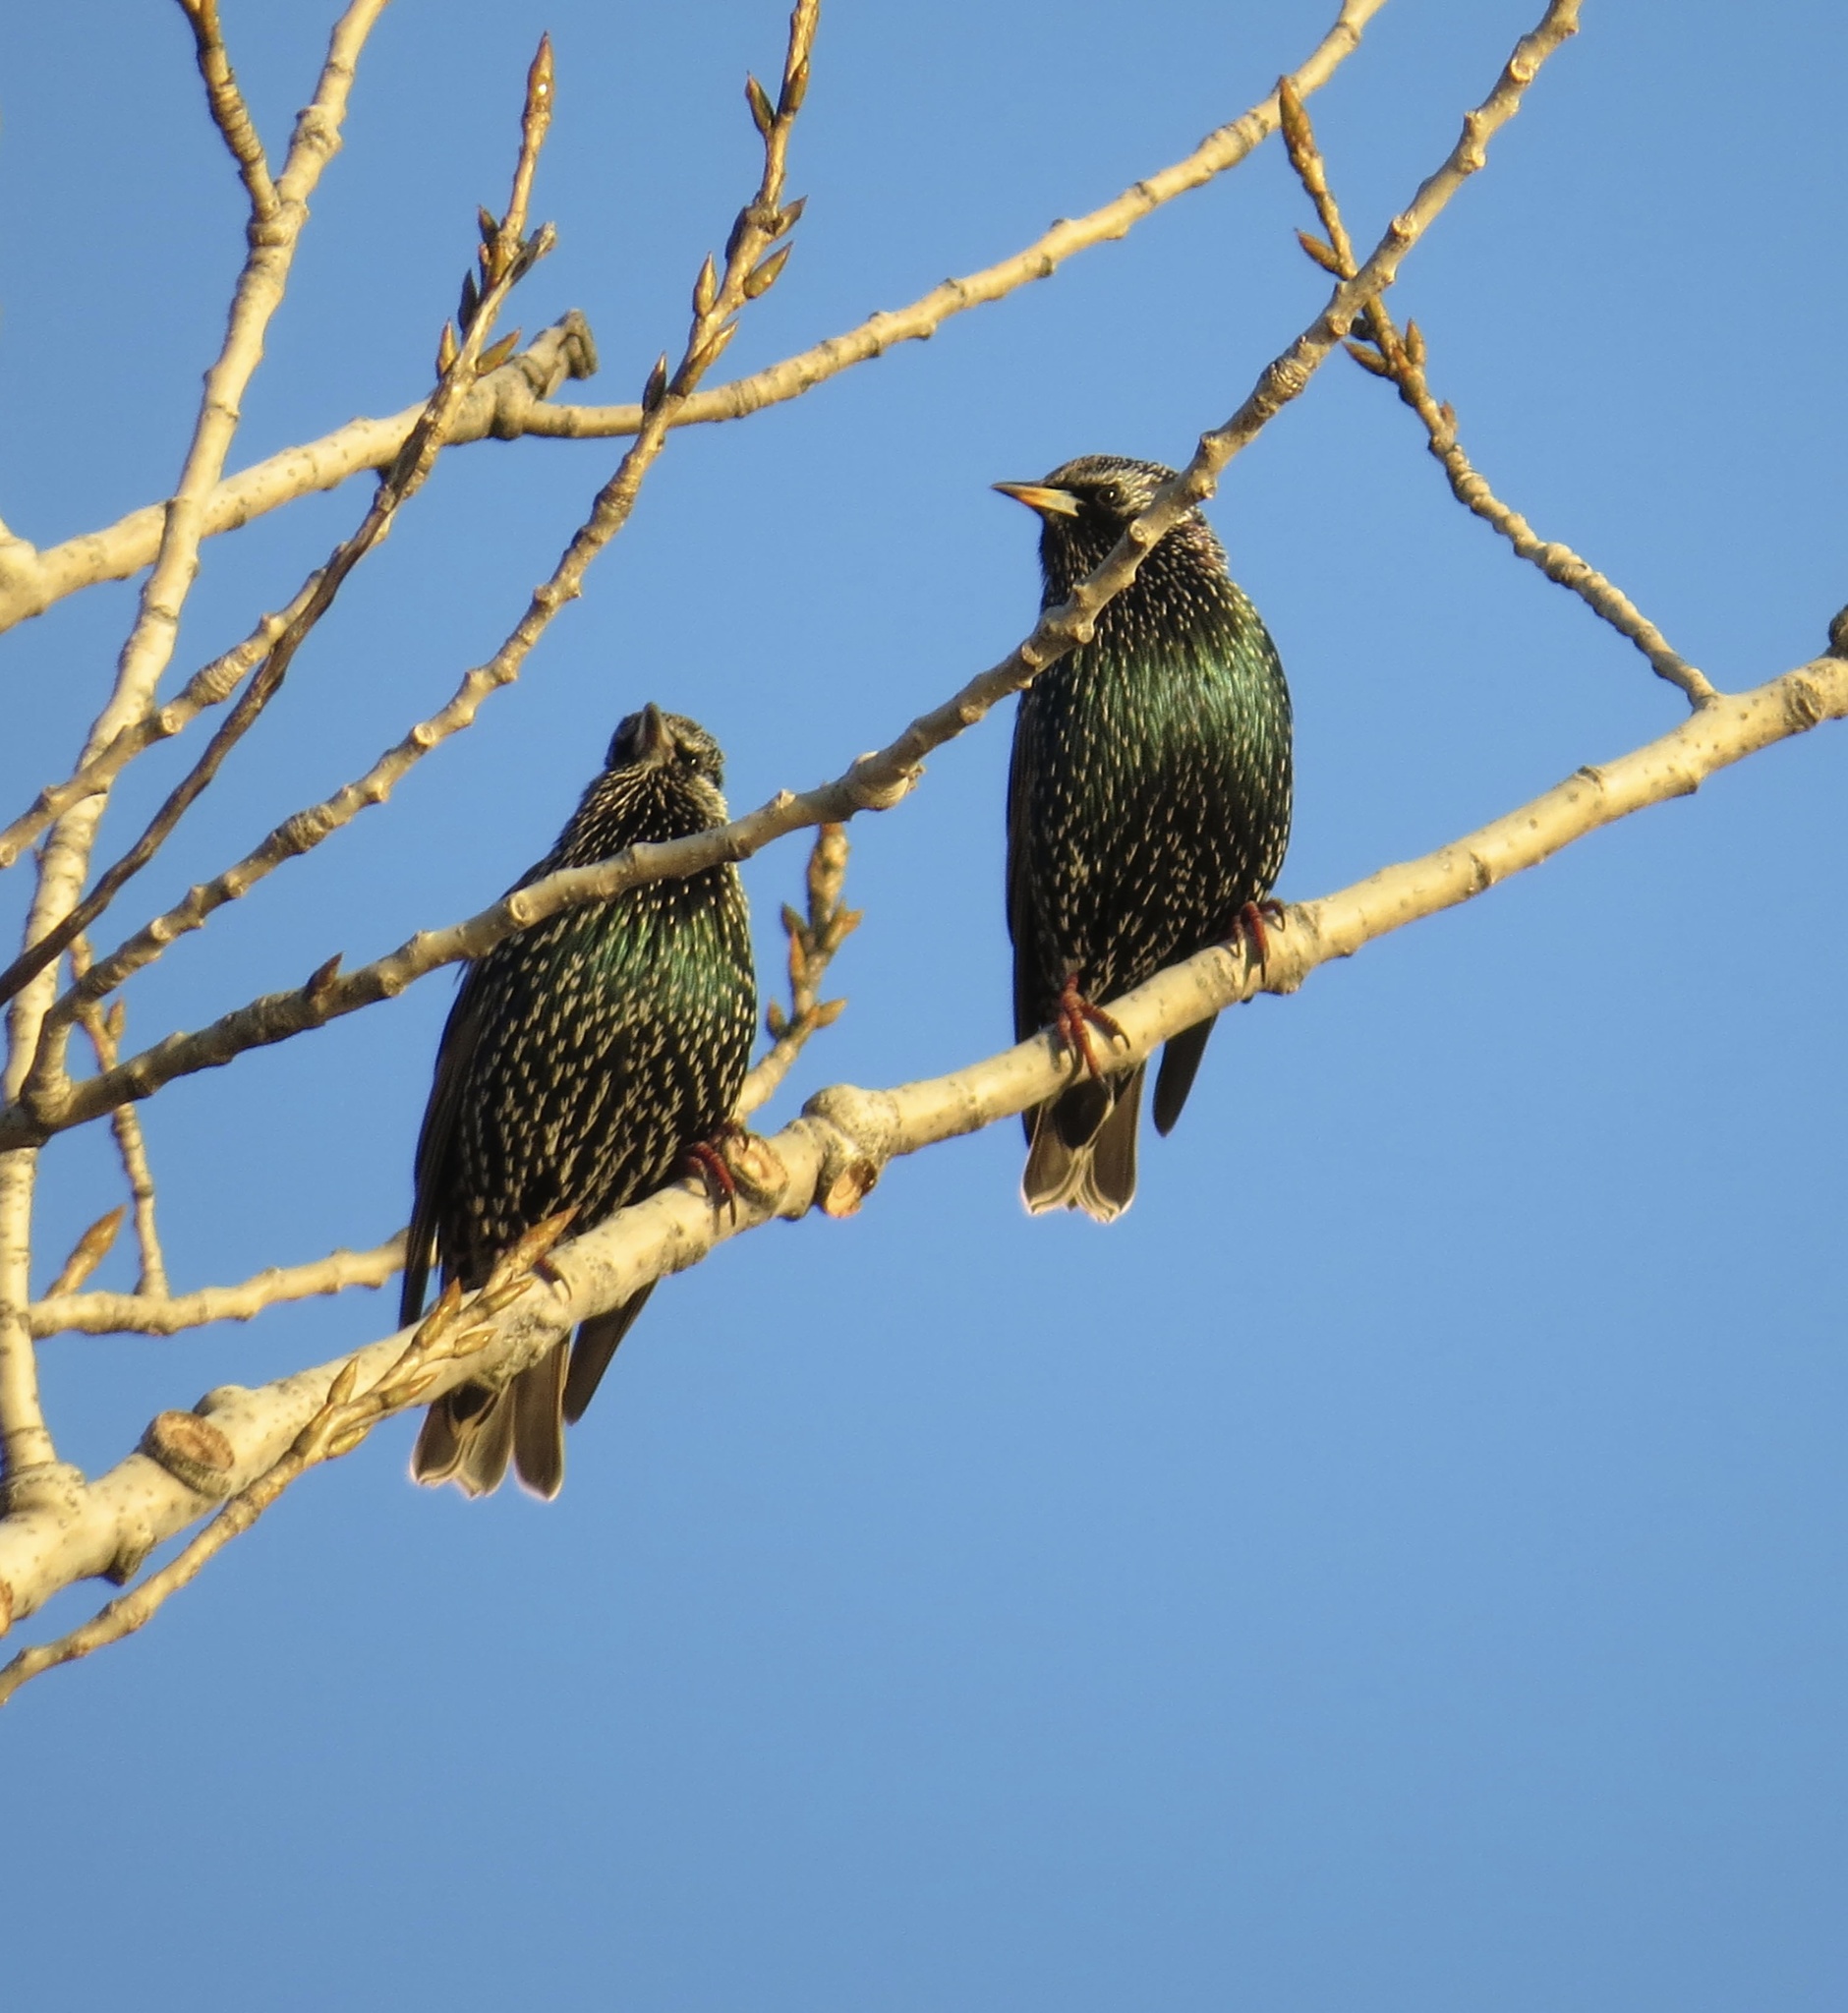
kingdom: Animalia
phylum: Chordata
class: Aves
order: Passeriformes
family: Sturnidae
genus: Sturnus
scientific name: Sturnus vulgaris
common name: Common starling
